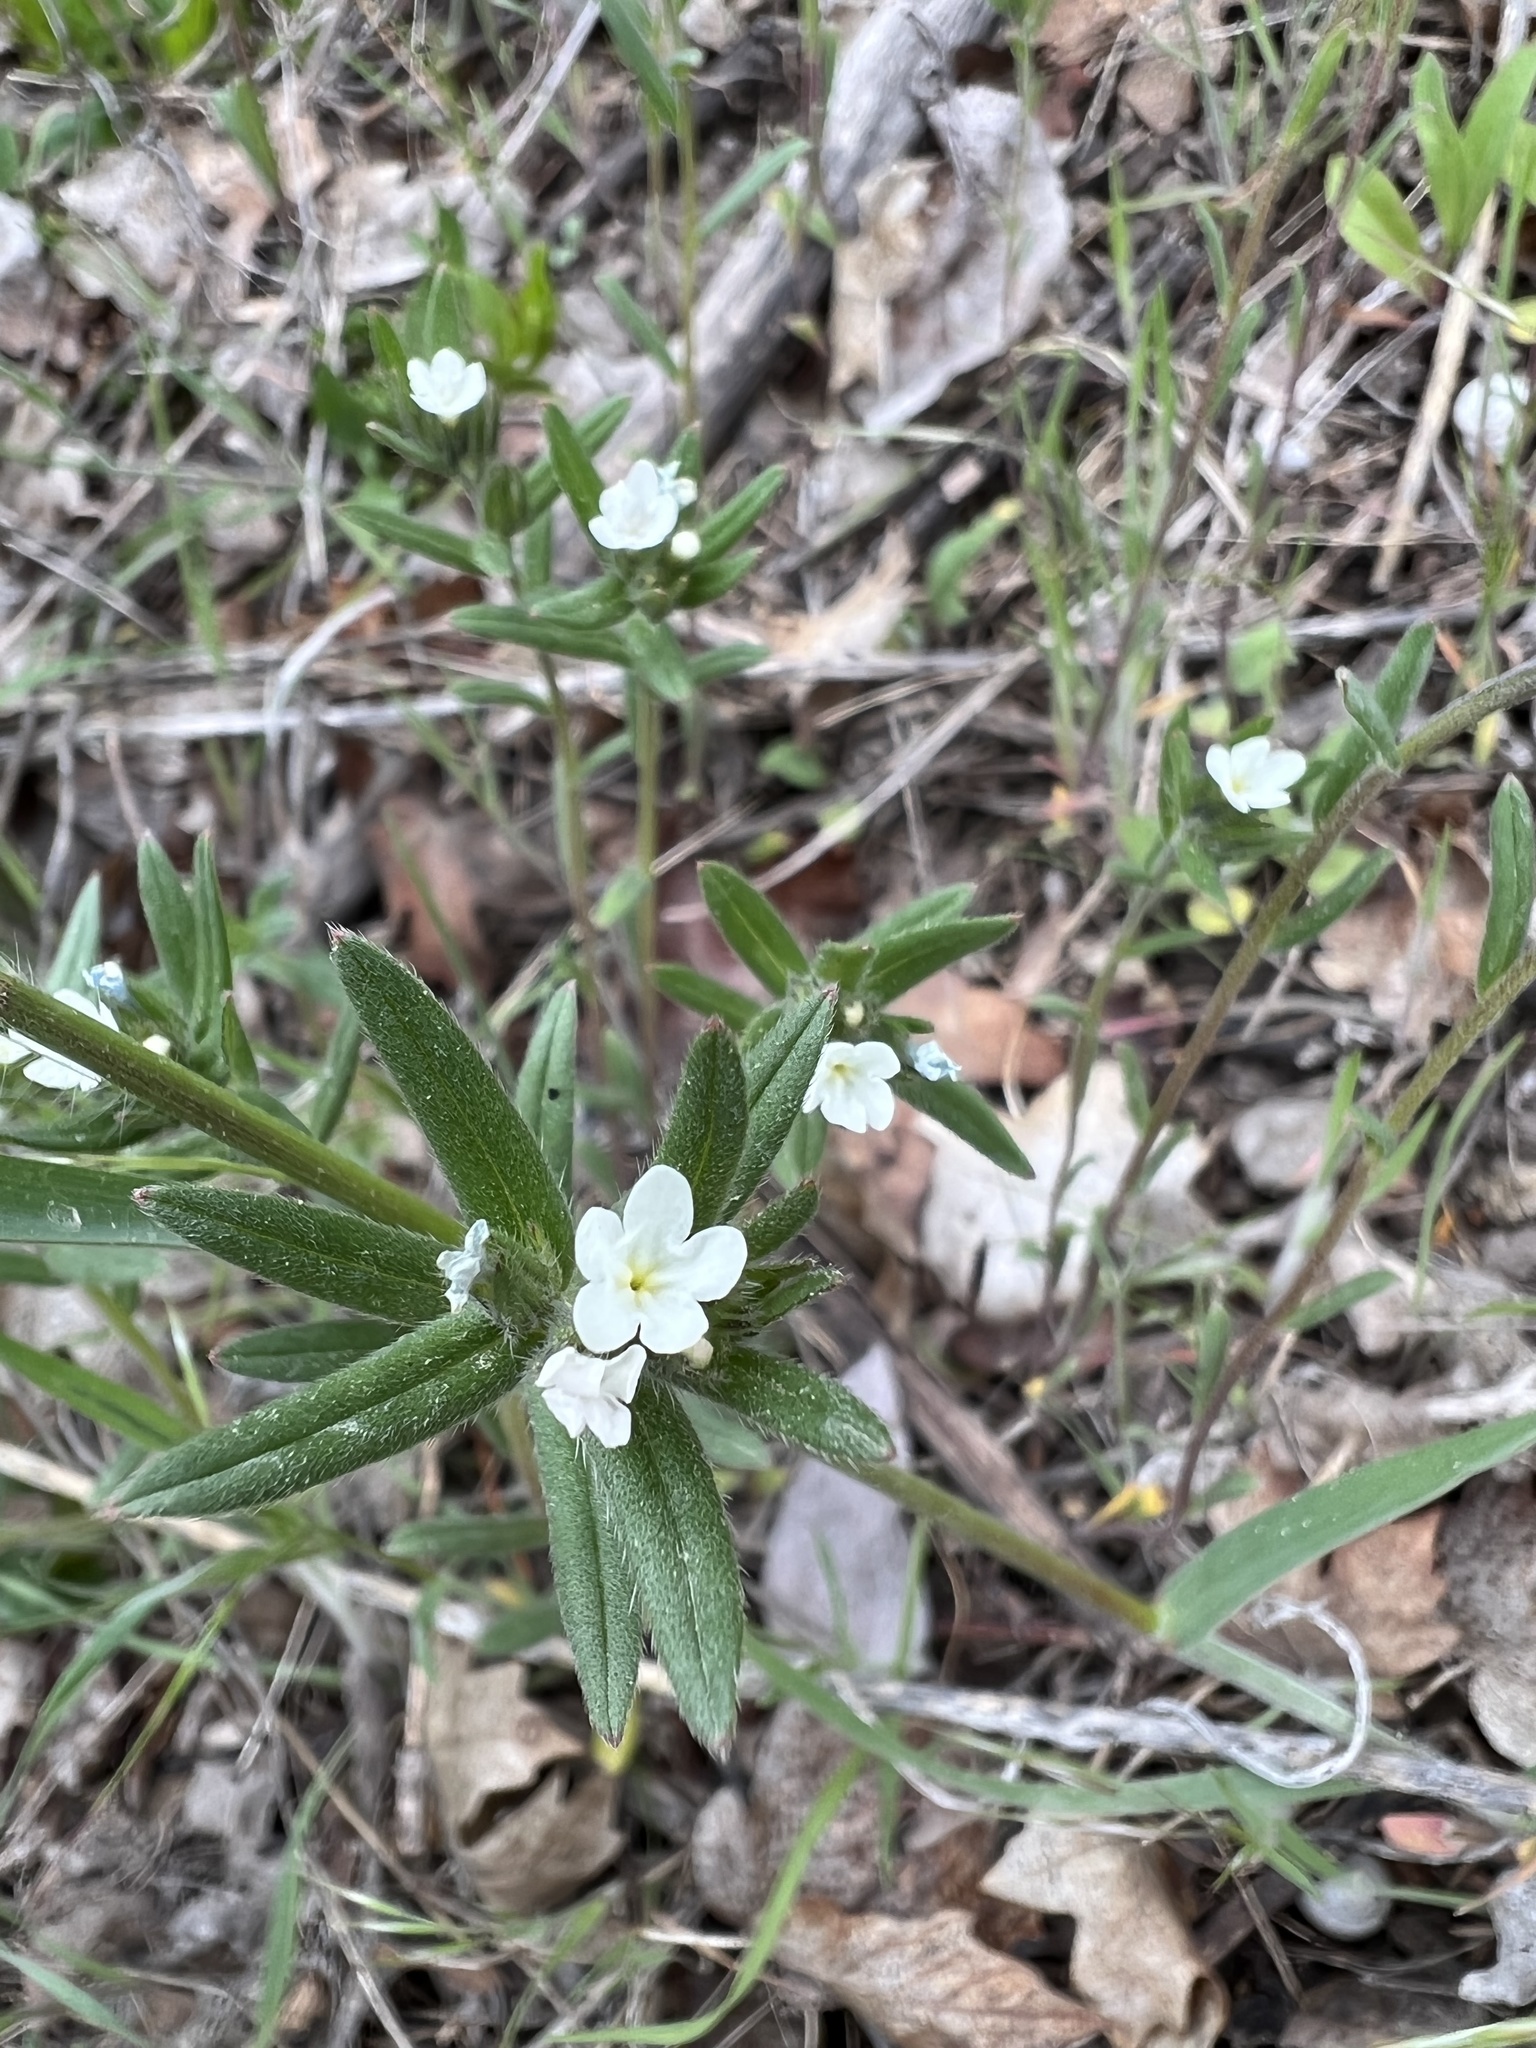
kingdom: Plantae
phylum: Tracheophyta
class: Magnoliopsida
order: Boraginales
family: Boraginaceae
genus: Buglossoides
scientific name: Buglossoides arvensis
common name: Corn gromwell
